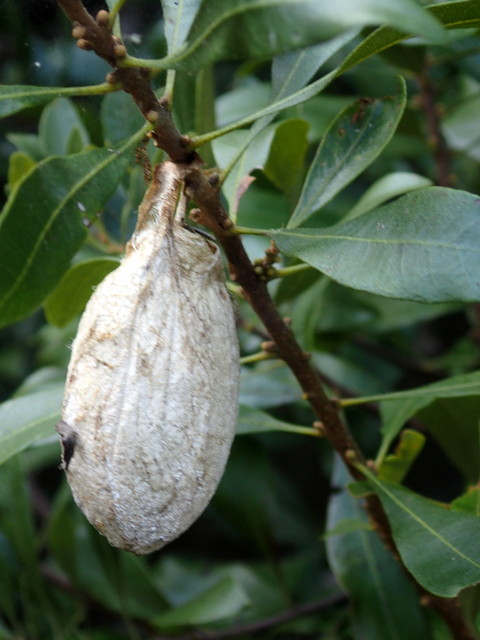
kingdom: Animalia
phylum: Arthropoda
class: Insecta
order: Lepidoptera
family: Saturniidae
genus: Antheraea
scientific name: Antheraea polyphemus
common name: Polyphemus moth
